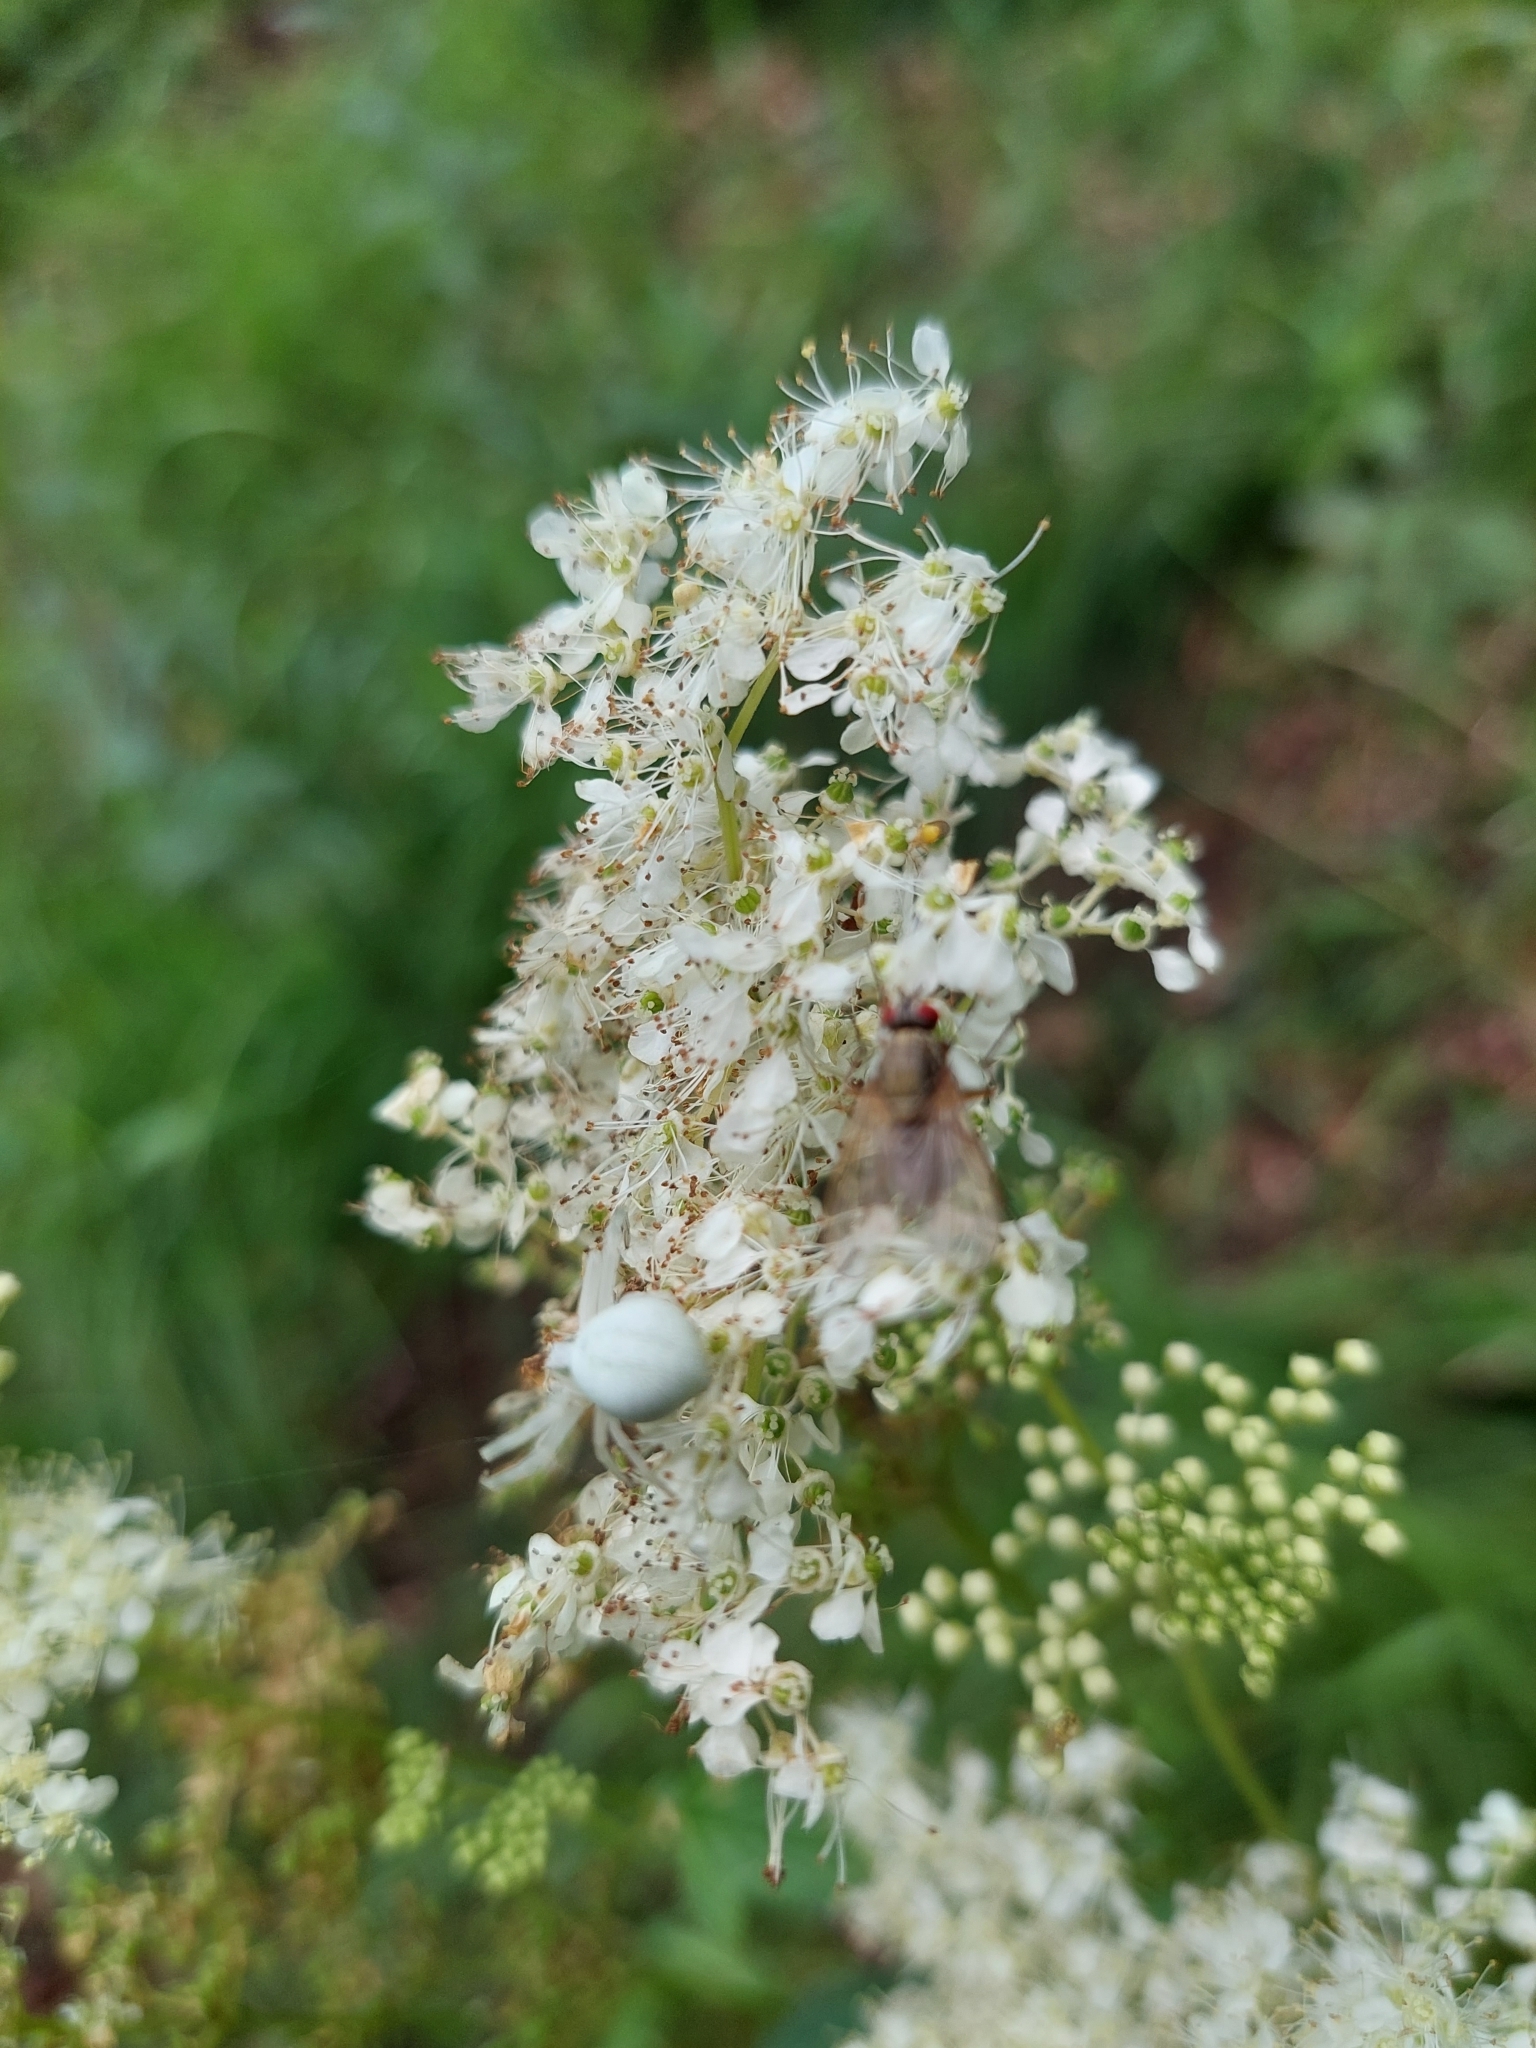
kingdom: Animalia
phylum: Arthropoda
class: Arachnida
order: Araneae
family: Thomisidae
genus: Misumena
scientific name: Misumena vatia
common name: Goldenrod crab spider
